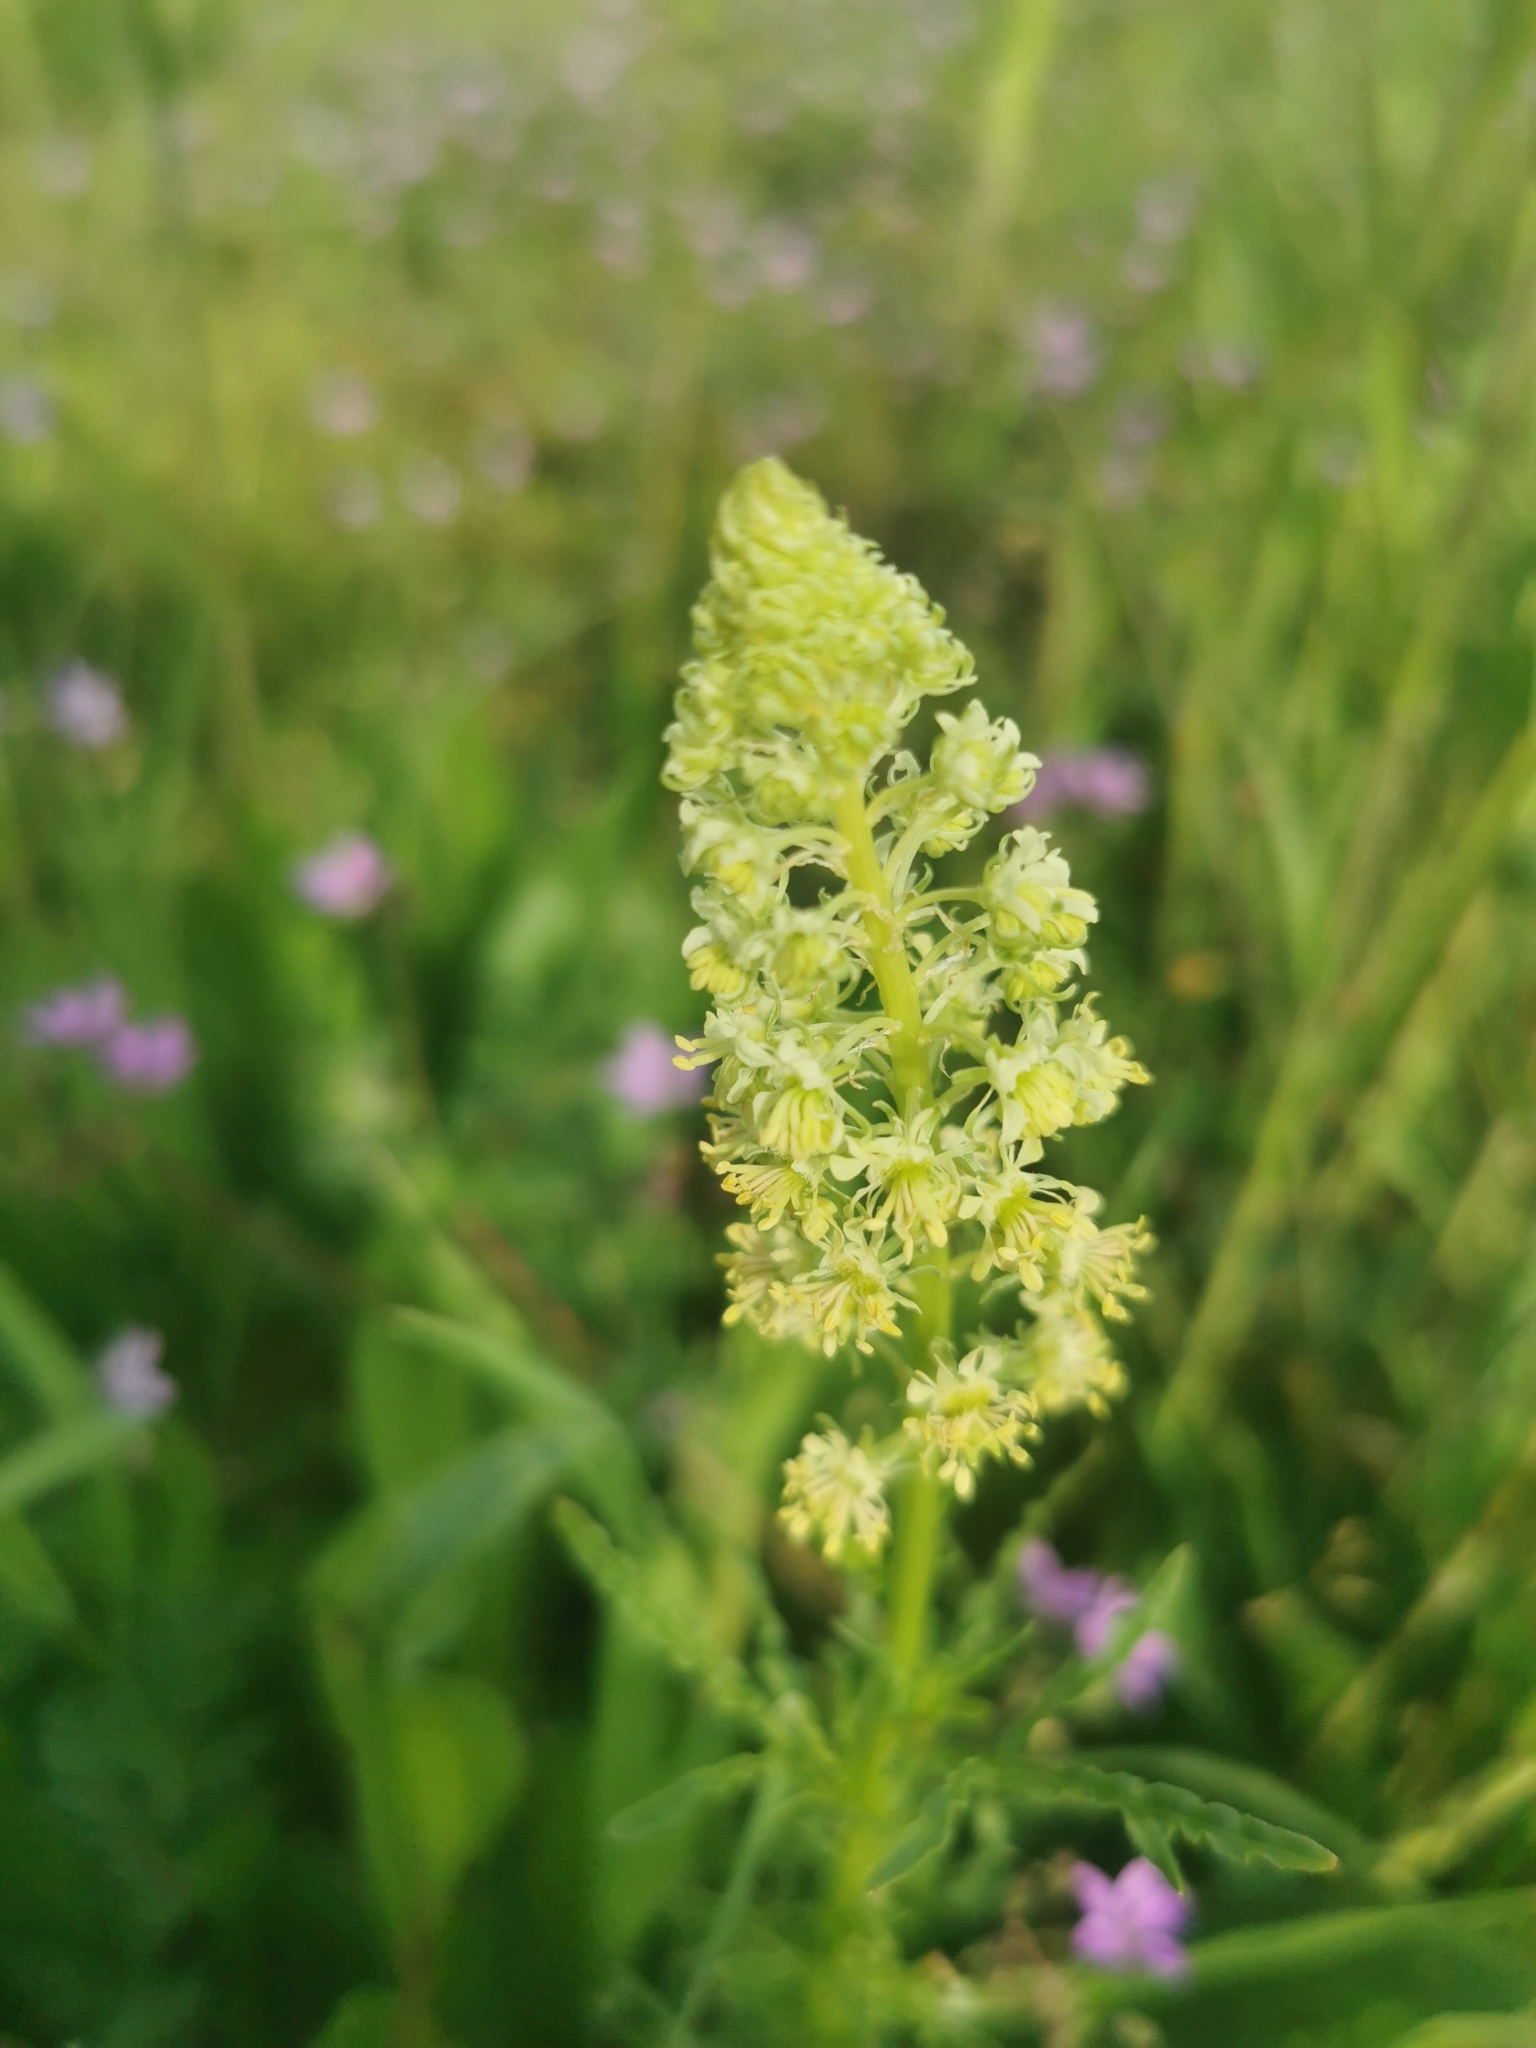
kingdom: Plantae
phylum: Tracheophyta
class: Magnoliopsida
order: Brassicales
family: Resedaceae
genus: Reseda
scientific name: Reseda lutea
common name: Wild mignonette
